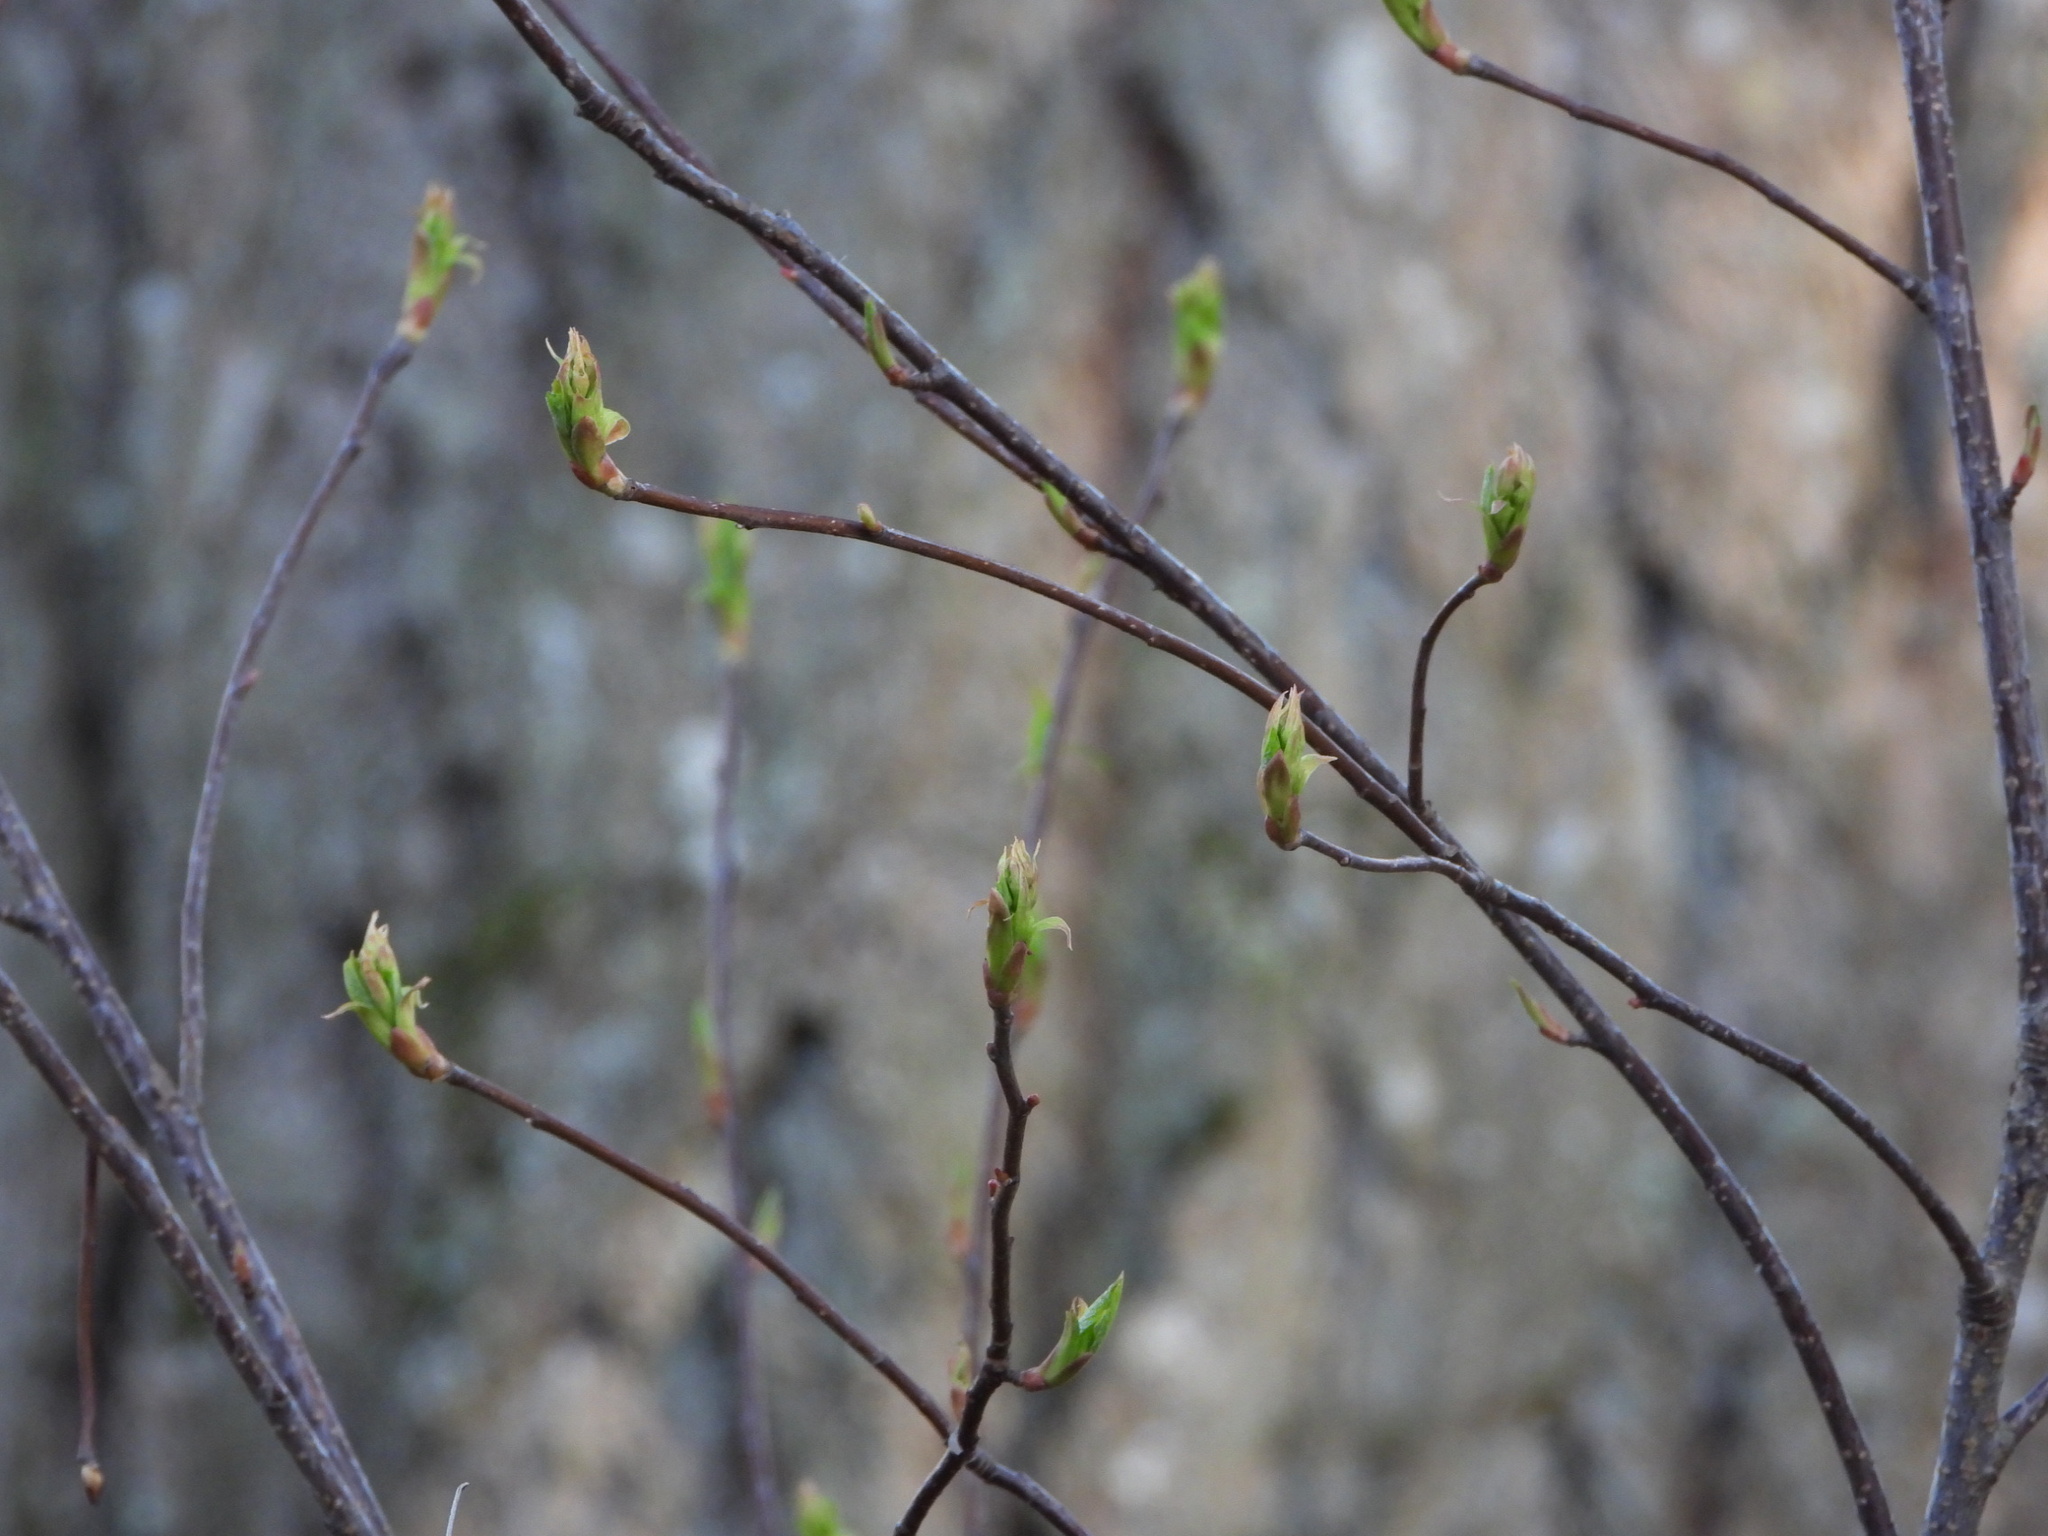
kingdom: Plantae
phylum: Tracheophyta
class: Magnoliopsida
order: Rosales
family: Rosaceae
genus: Oemleria
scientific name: Oemleria cerasiformis
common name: Osoberry
